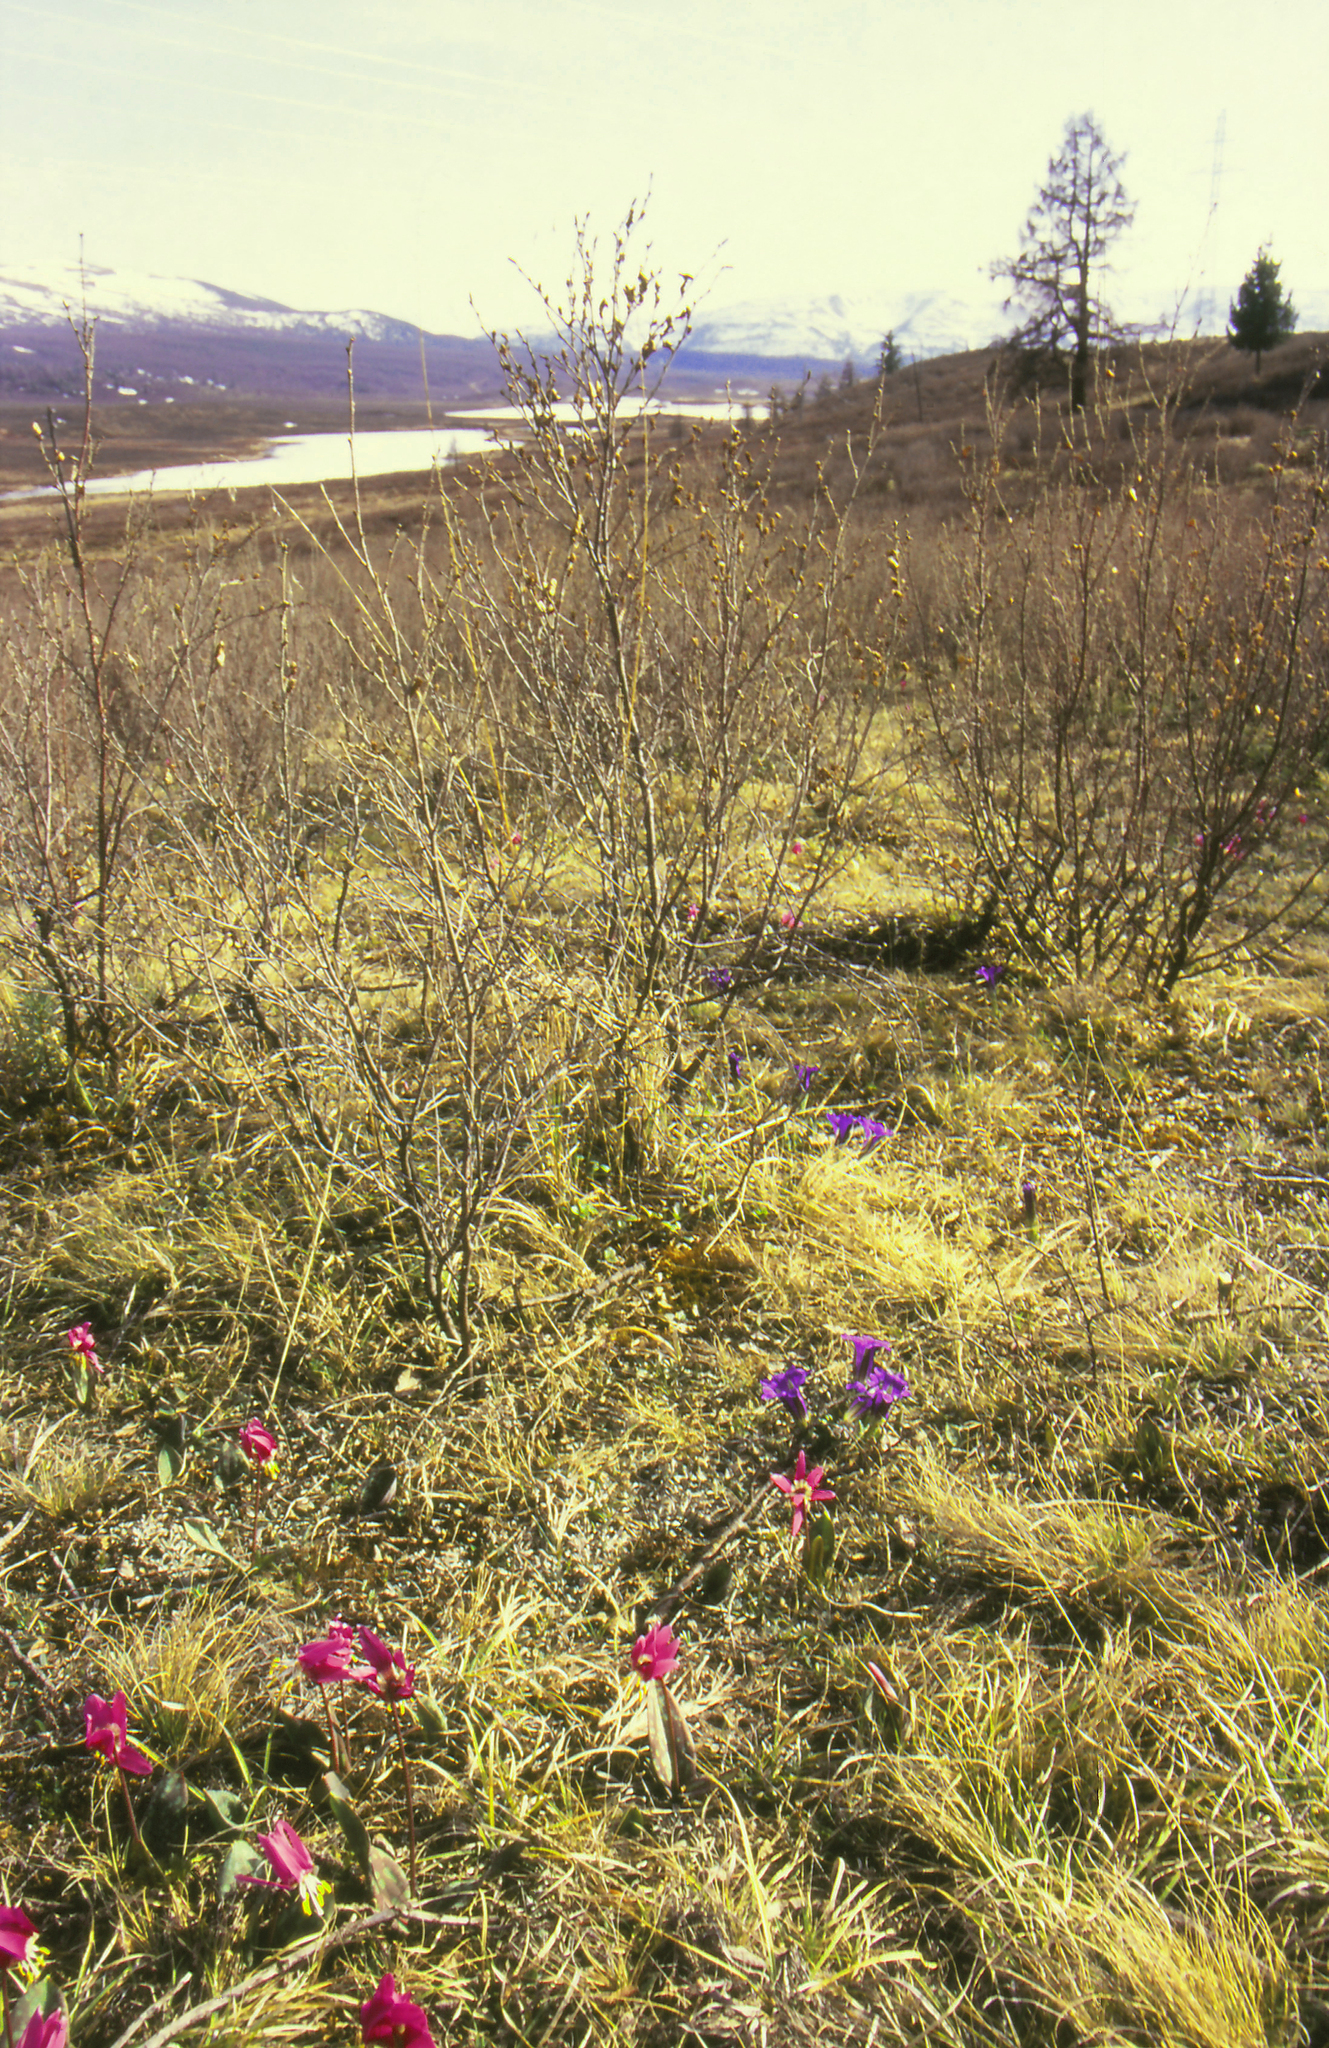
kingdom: Plantae
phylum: Tracheophyta
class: Liliopsida
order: Liliales
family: Liliaceae
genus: Erythronium
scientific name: Erythronium sibiricum
